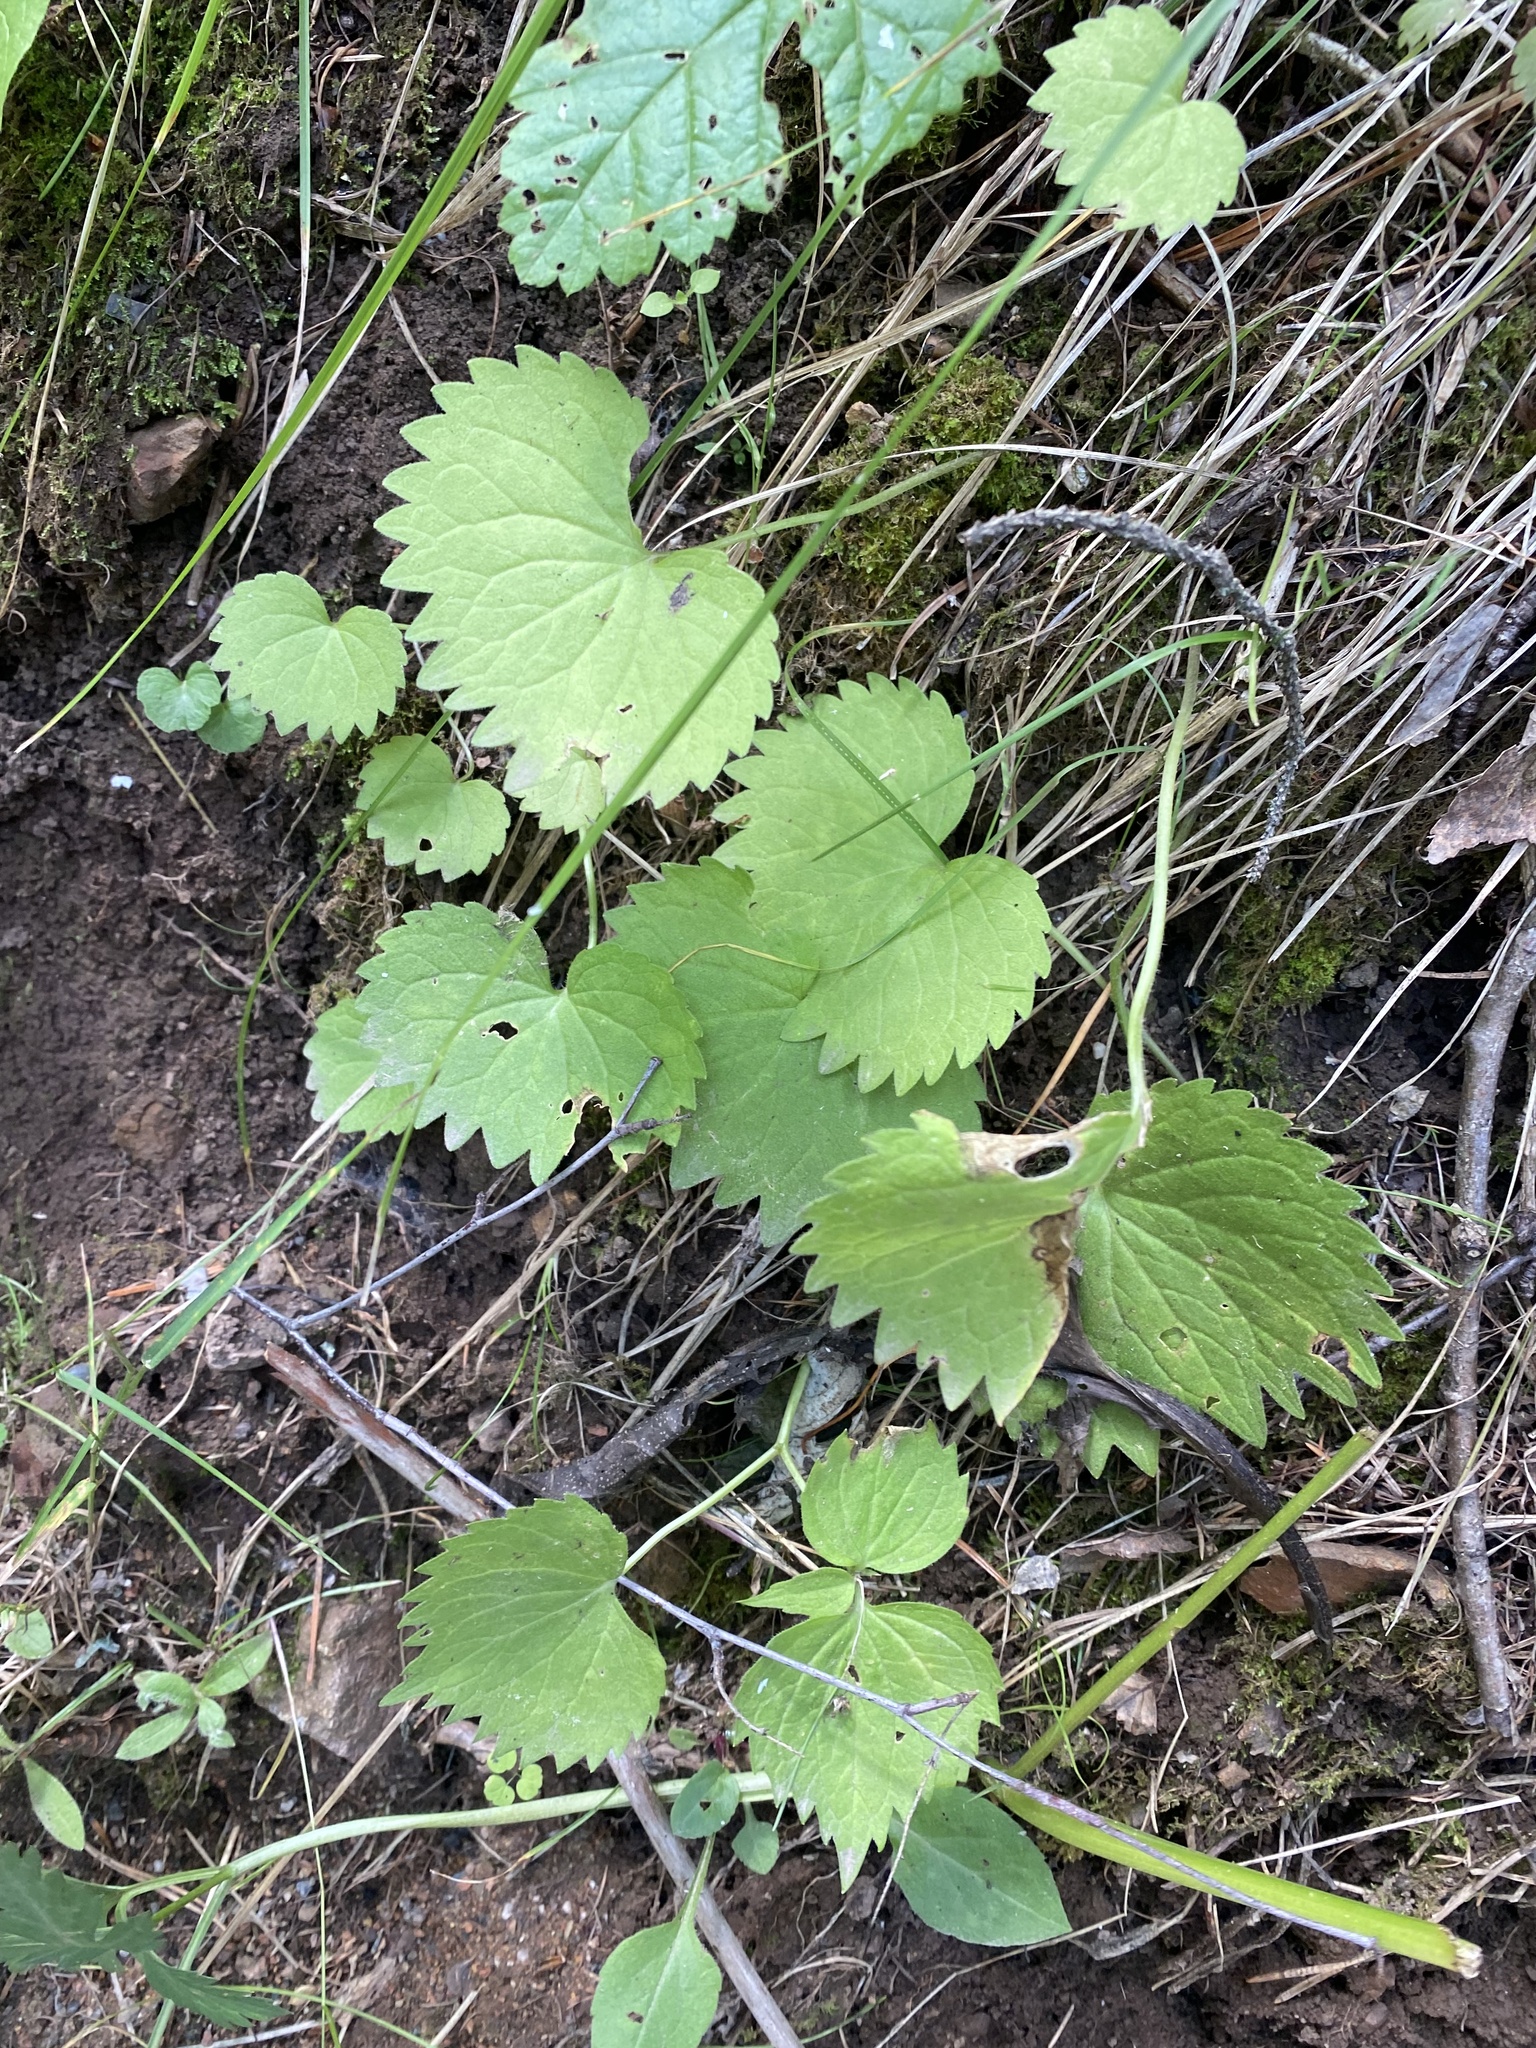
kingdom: Plantae
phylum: Tracheophyta
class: Magnoliopsida
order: Malpighiales
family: Violaceae
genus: Viola
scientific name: Viola uniflora
